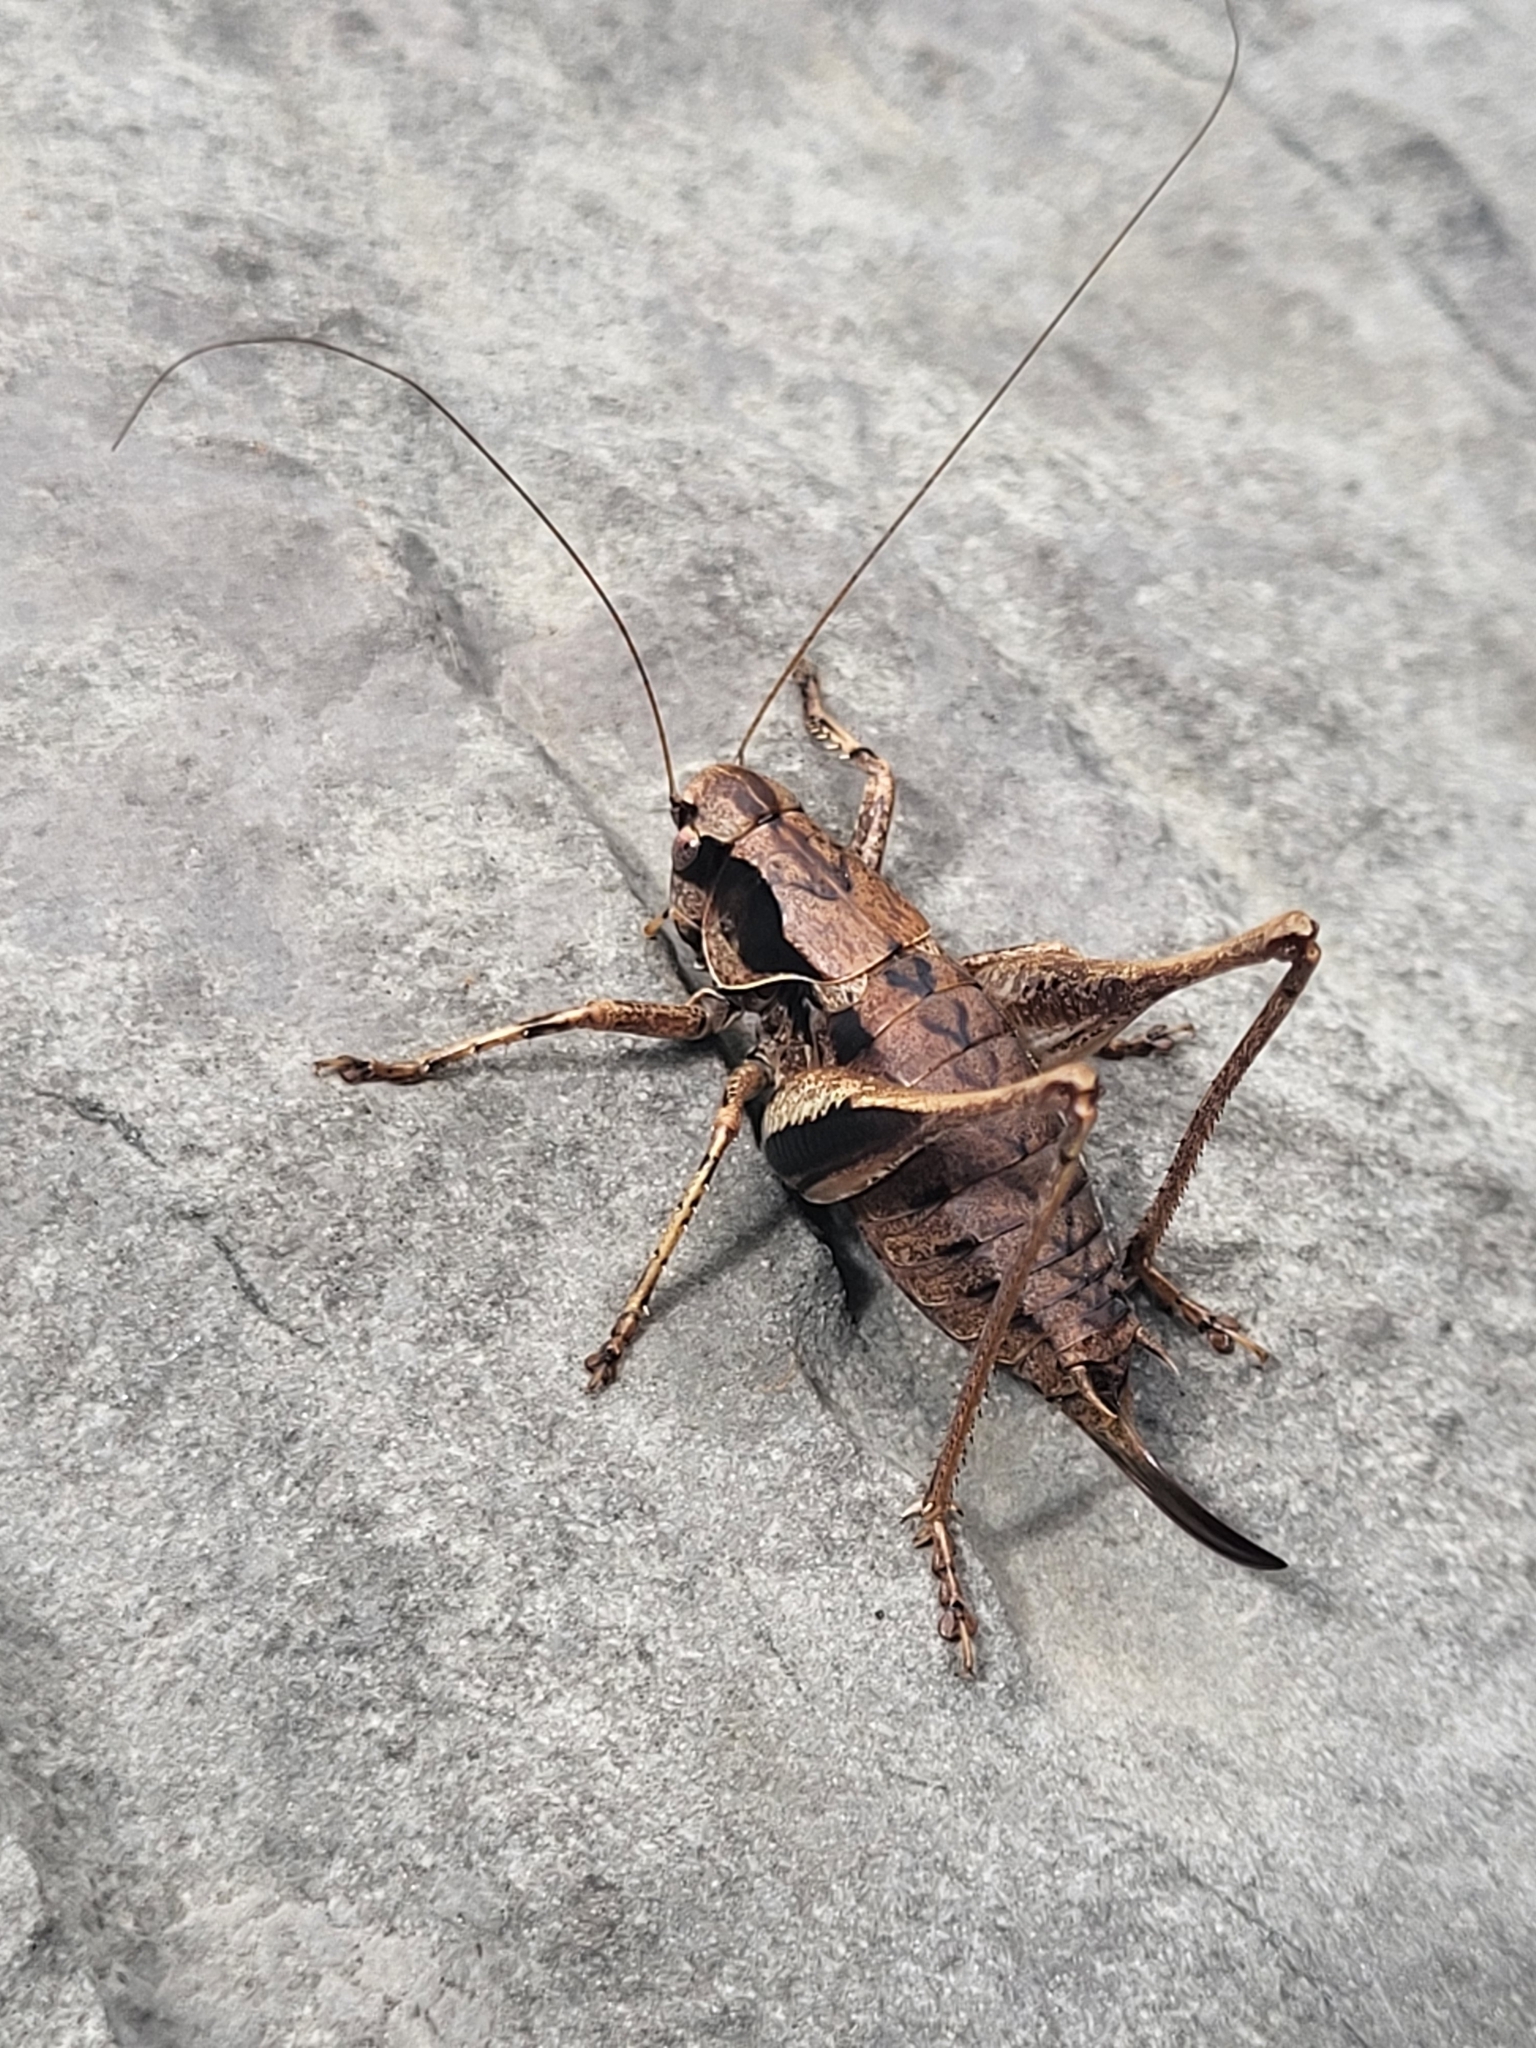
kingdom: Animalia
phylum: Arthropoda
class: Insecta
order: Orthoptera
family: Tettigoniidae
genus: Pholidoptera
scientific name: Pholidoptera griseoaptera
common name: Dark bush-cricket
